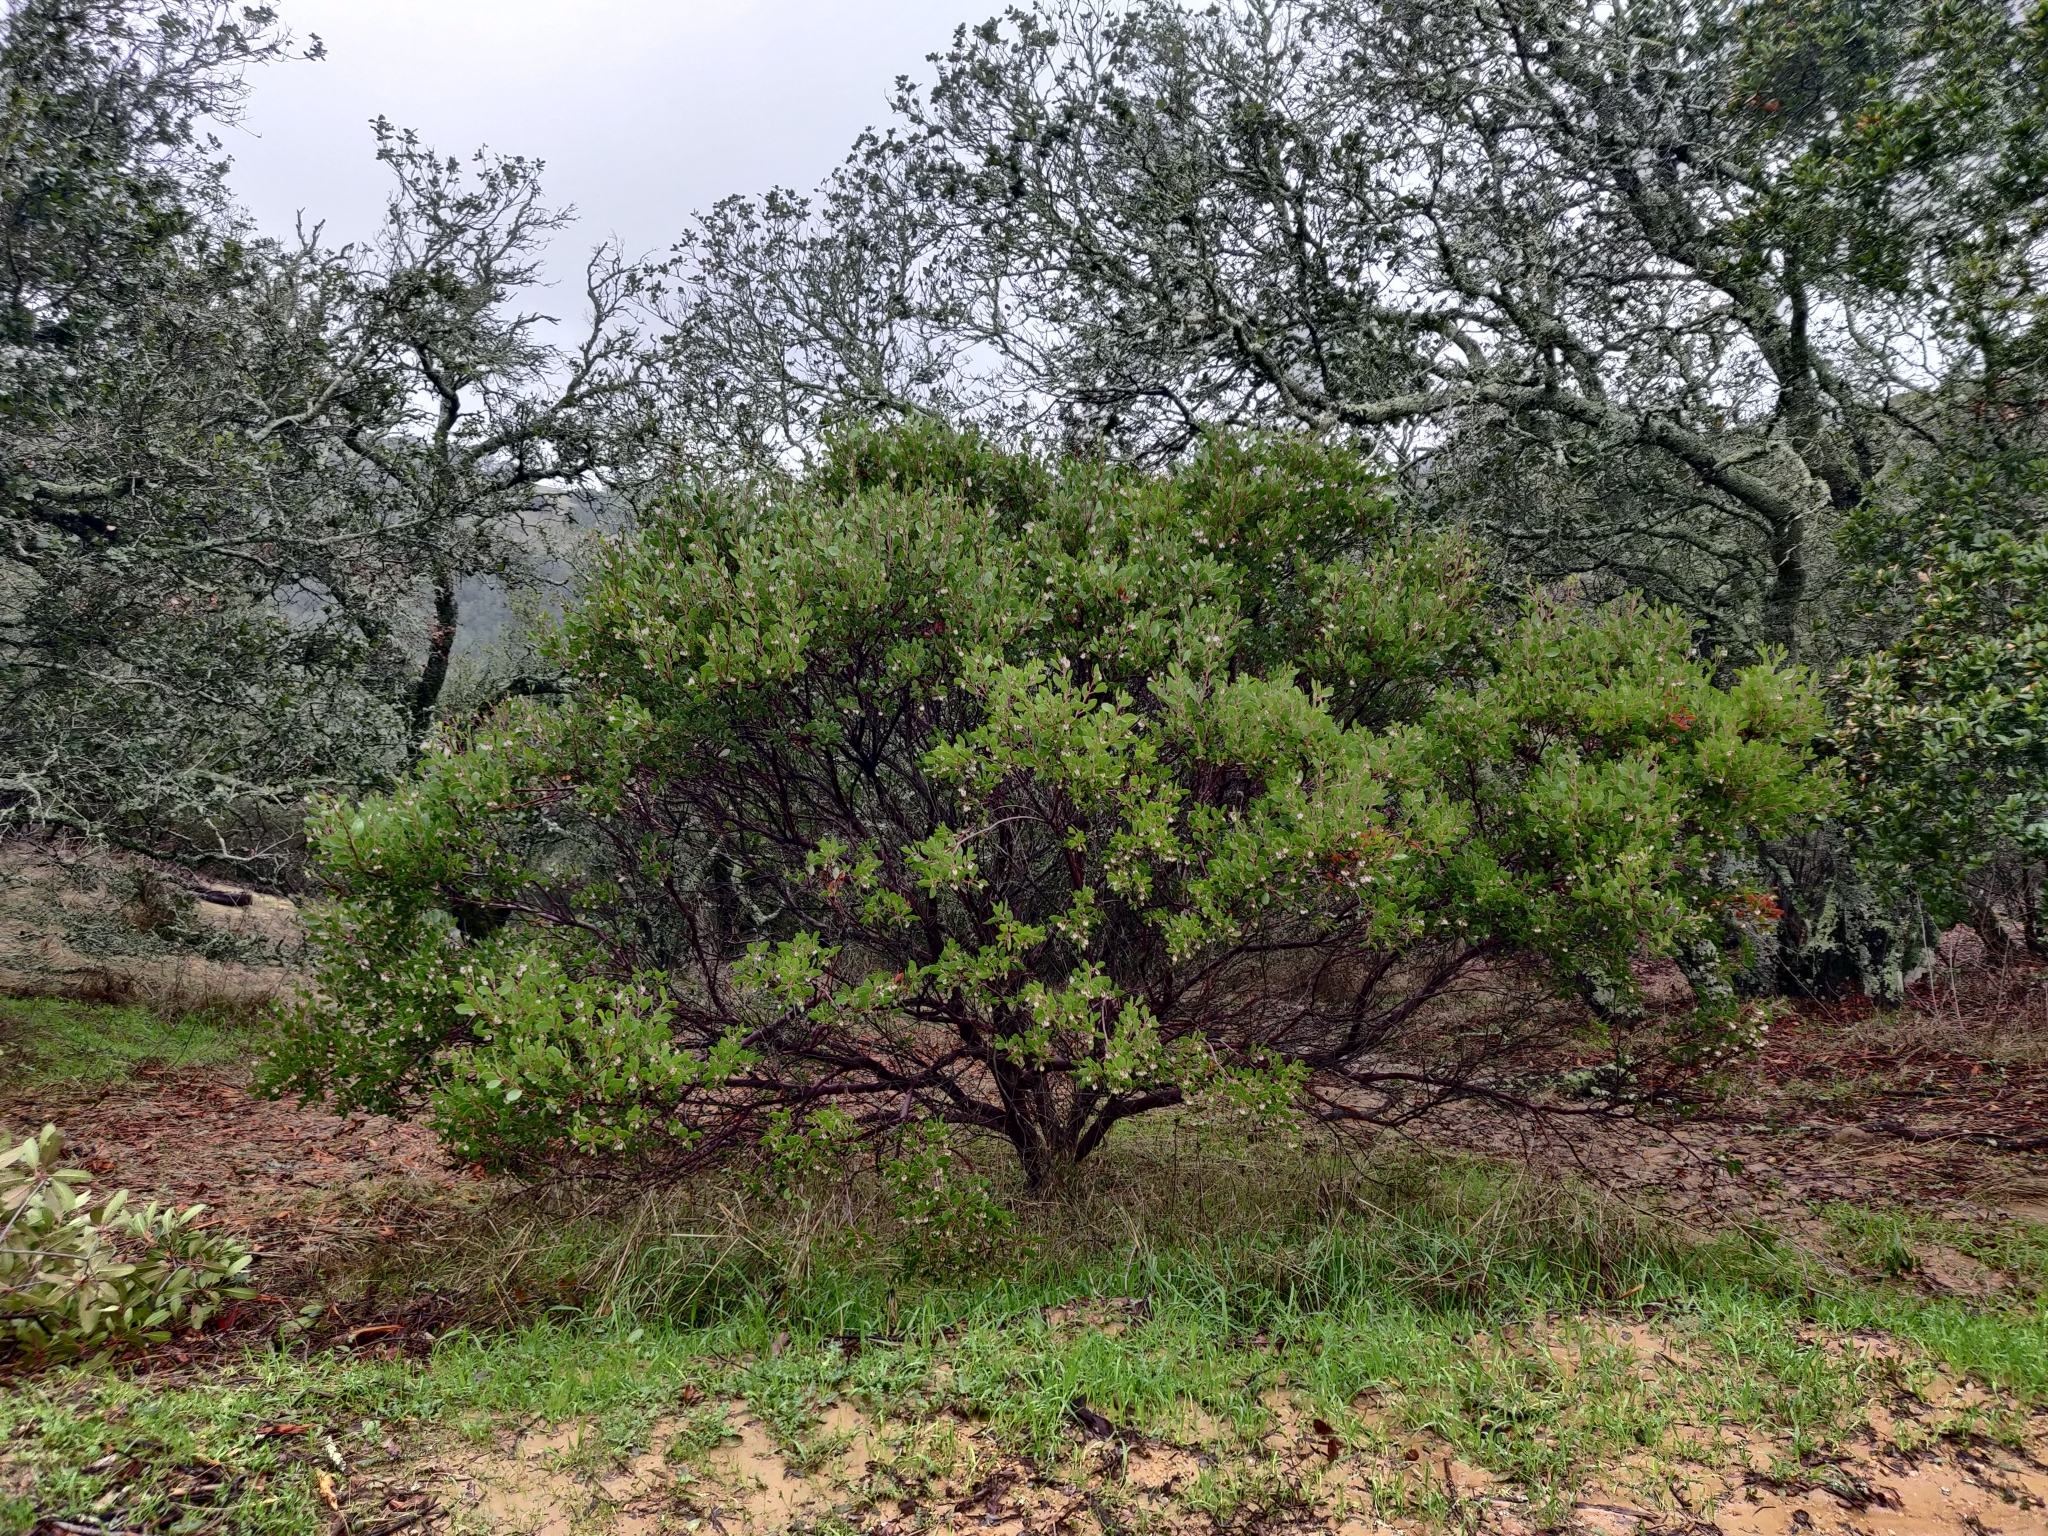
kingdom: Plantae
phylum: Tracheophyta
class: Magnoliopsida
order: Ericales
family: Ericaceae
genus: Arctostaphylos
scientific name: Arctostaphylos manzanita
